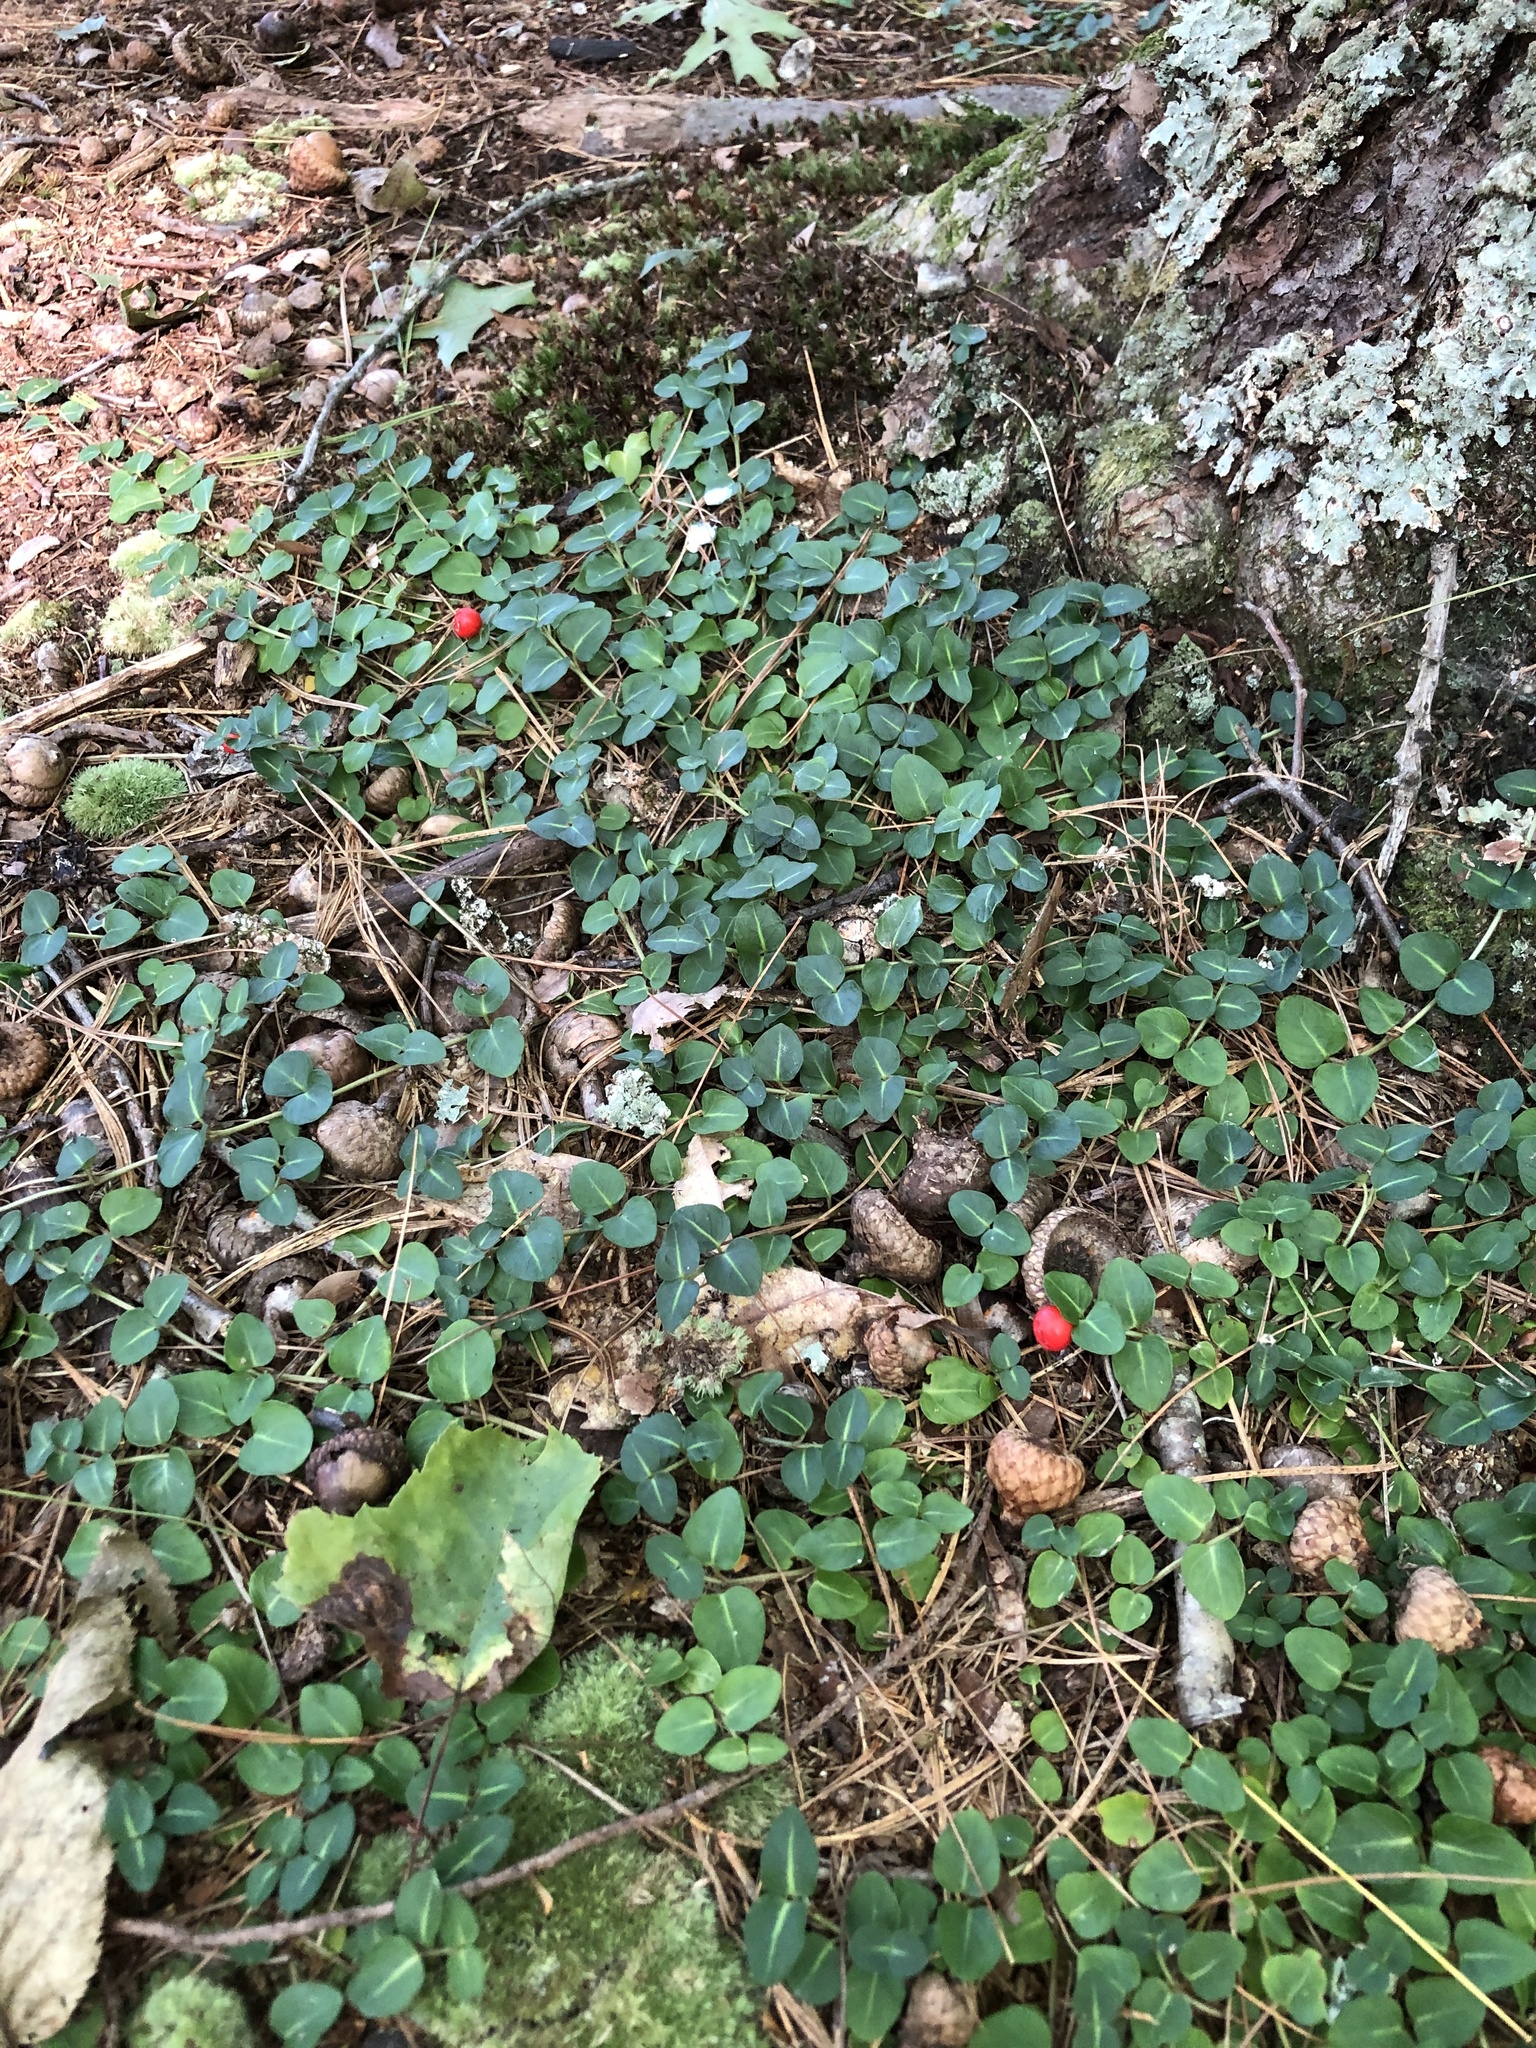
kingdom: Plantae
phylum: Tracheophyta
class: Magnoliopsida
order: Gentianales
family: Rubiaceae
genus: Mitchella
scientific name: Mitchella repens
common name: Partridge-berry
